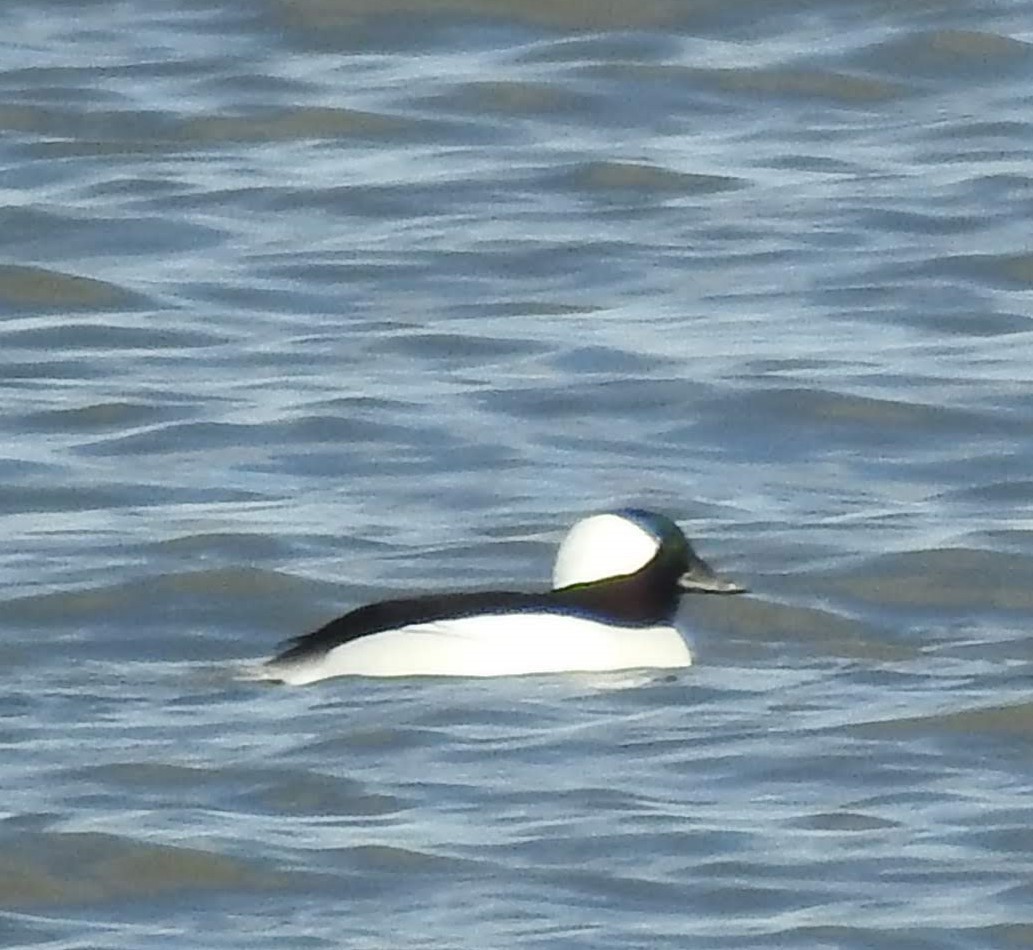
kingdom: Animalia
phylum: Chordata
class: Aves
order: Anseriformes
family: Anatidae
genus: Bucephala
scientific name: Bucephala albeola
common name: Bufflehead
